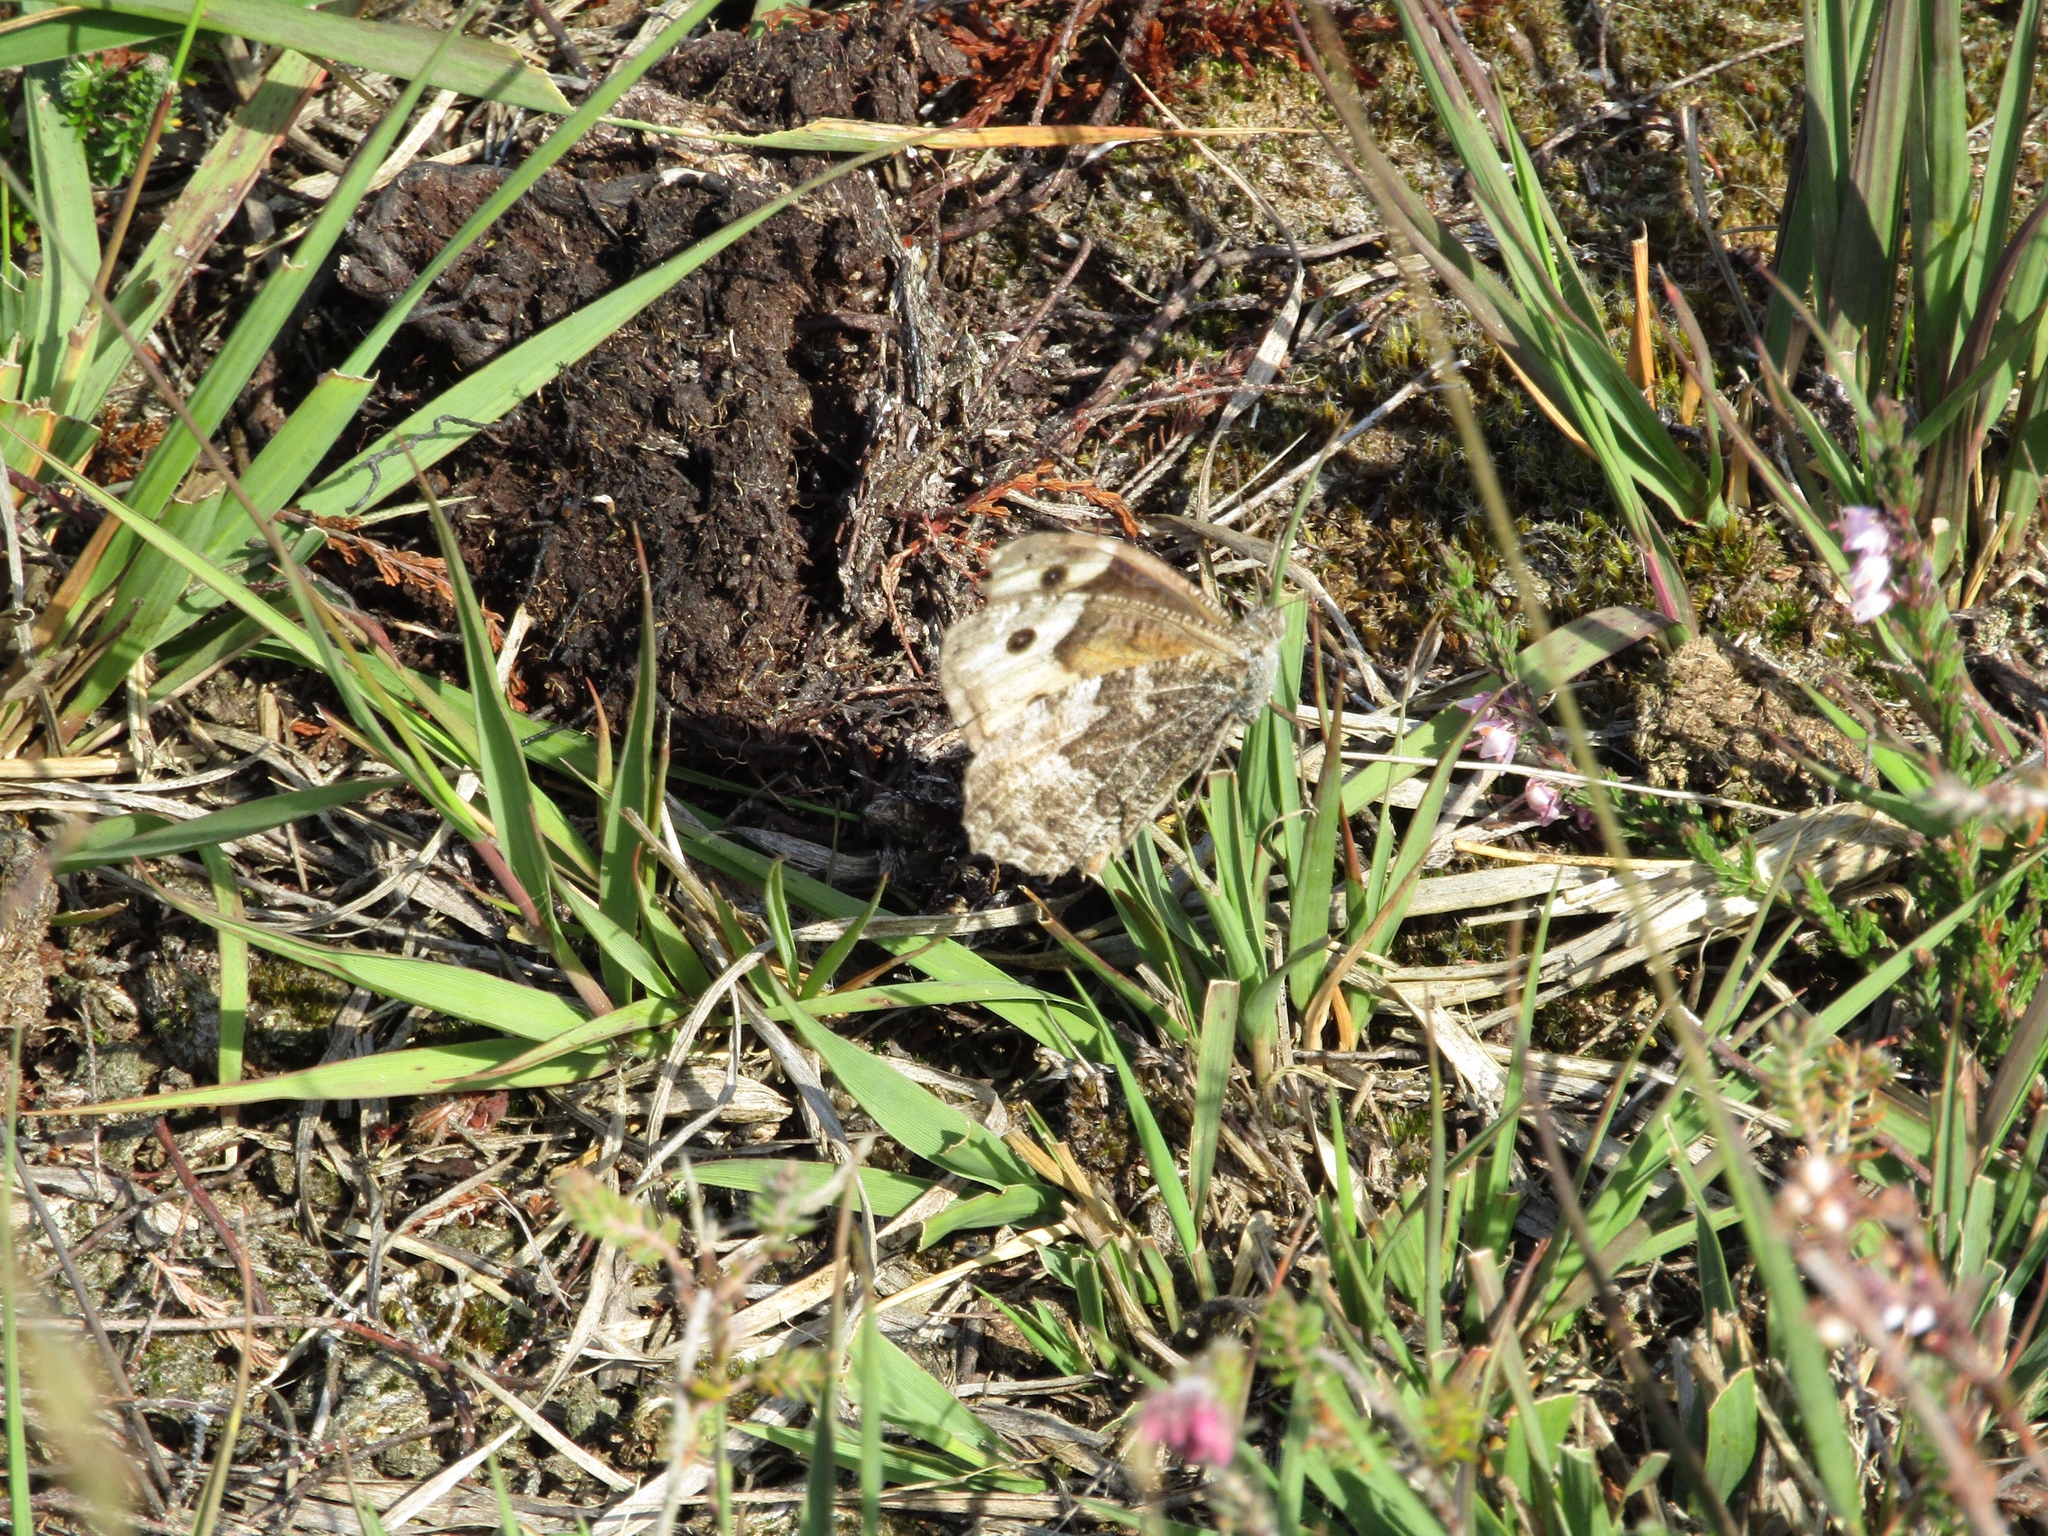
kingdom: Animalia
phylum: Arthropoda
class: Insecta
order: Lepidoptera
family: Nymphalidae
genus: Hipparchia
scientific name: Hipparchia semele
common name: Grayling
